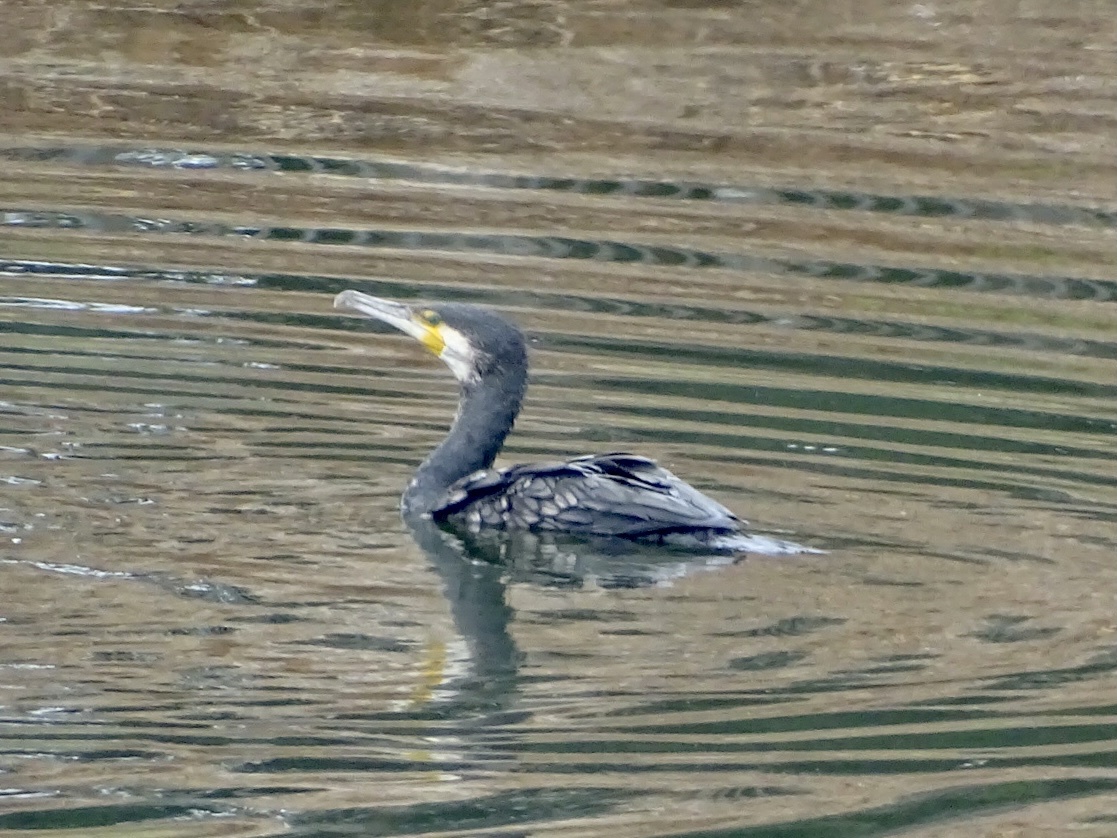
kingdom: Animalia
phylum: Chordata
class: Aves
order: Suliformes
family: Phalacrocoracidae
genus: Phalacrocorax
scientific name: Phalacrocorax carbo
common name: Great cormorant
